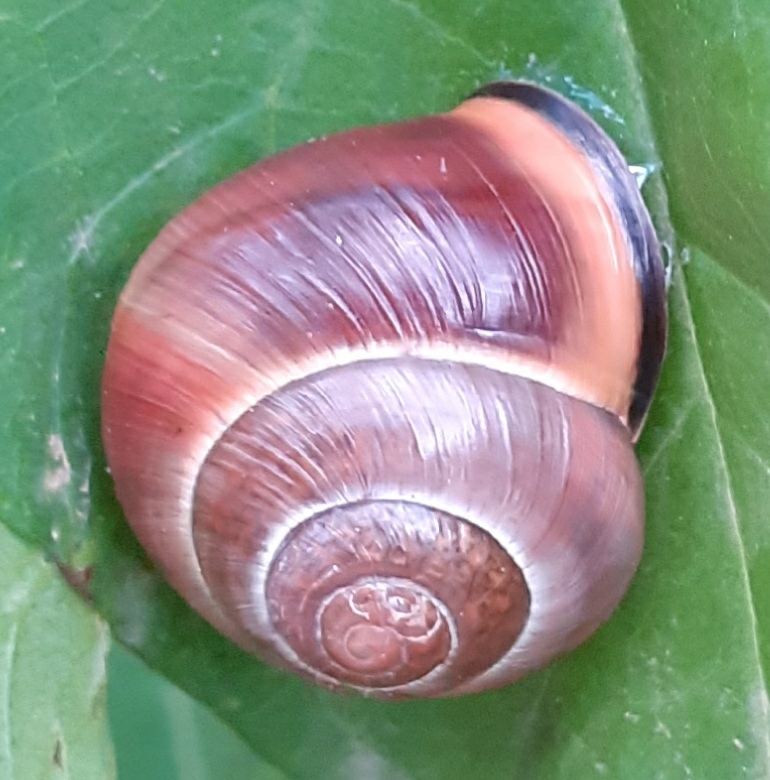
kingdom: Animalia
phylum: Mollusca
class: Gastropoda
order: Stylommatophora
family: Helicidae
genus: Cepaea
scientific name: Cepaea nemoralis
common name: Grovesnail
